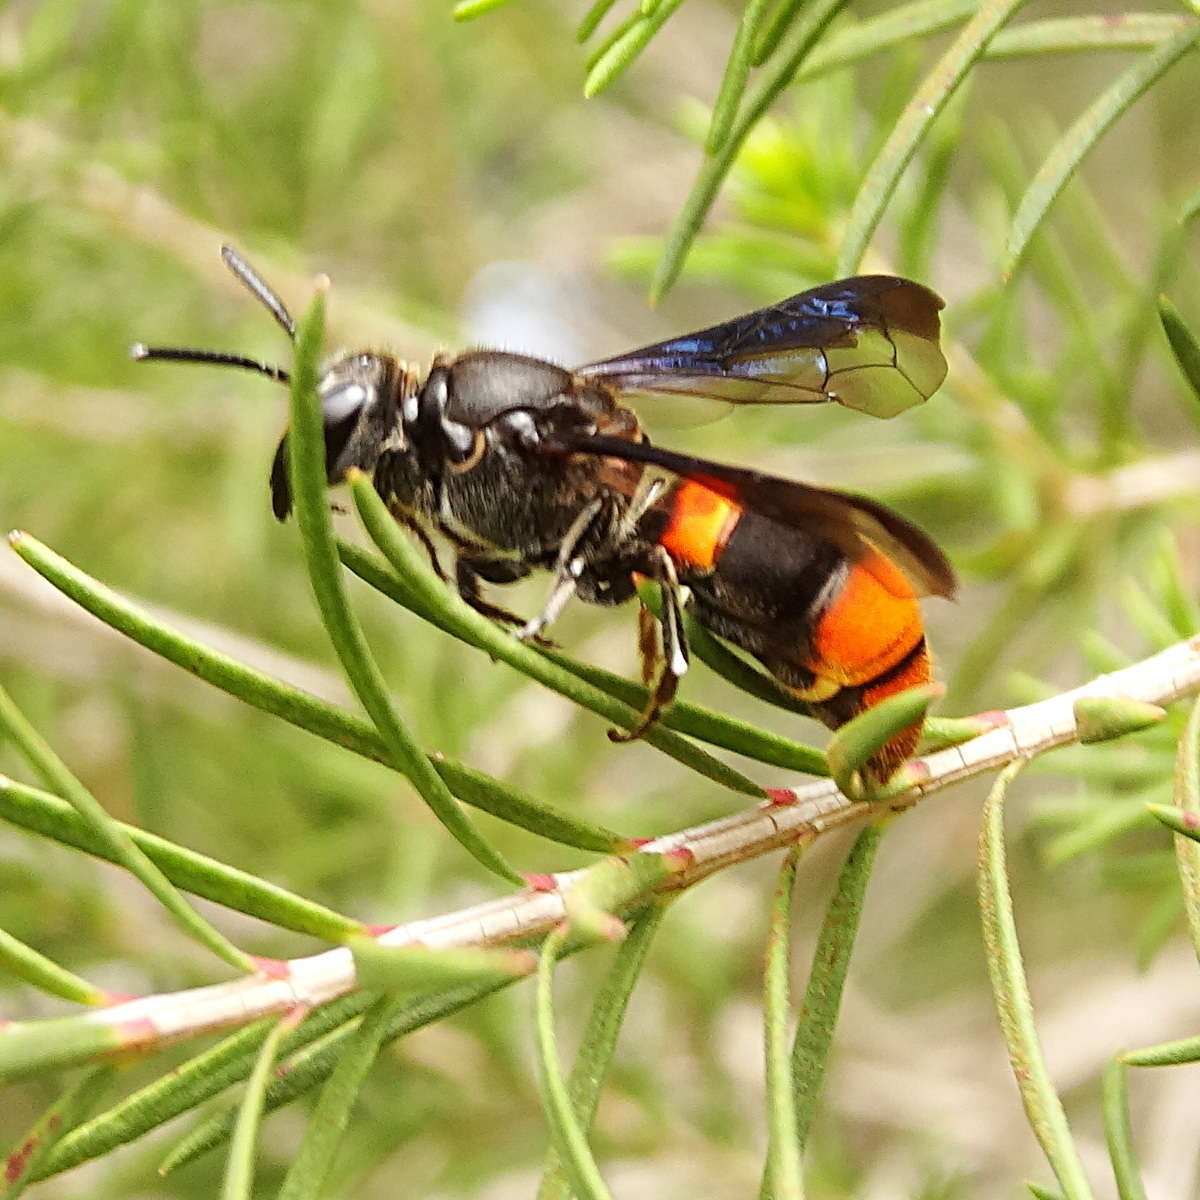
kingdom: Animalia
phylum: Arthropoda
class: Insecta
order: Hymenoptera
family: Colletidae
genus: Hyleoides
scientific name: Hyleoides concinna
